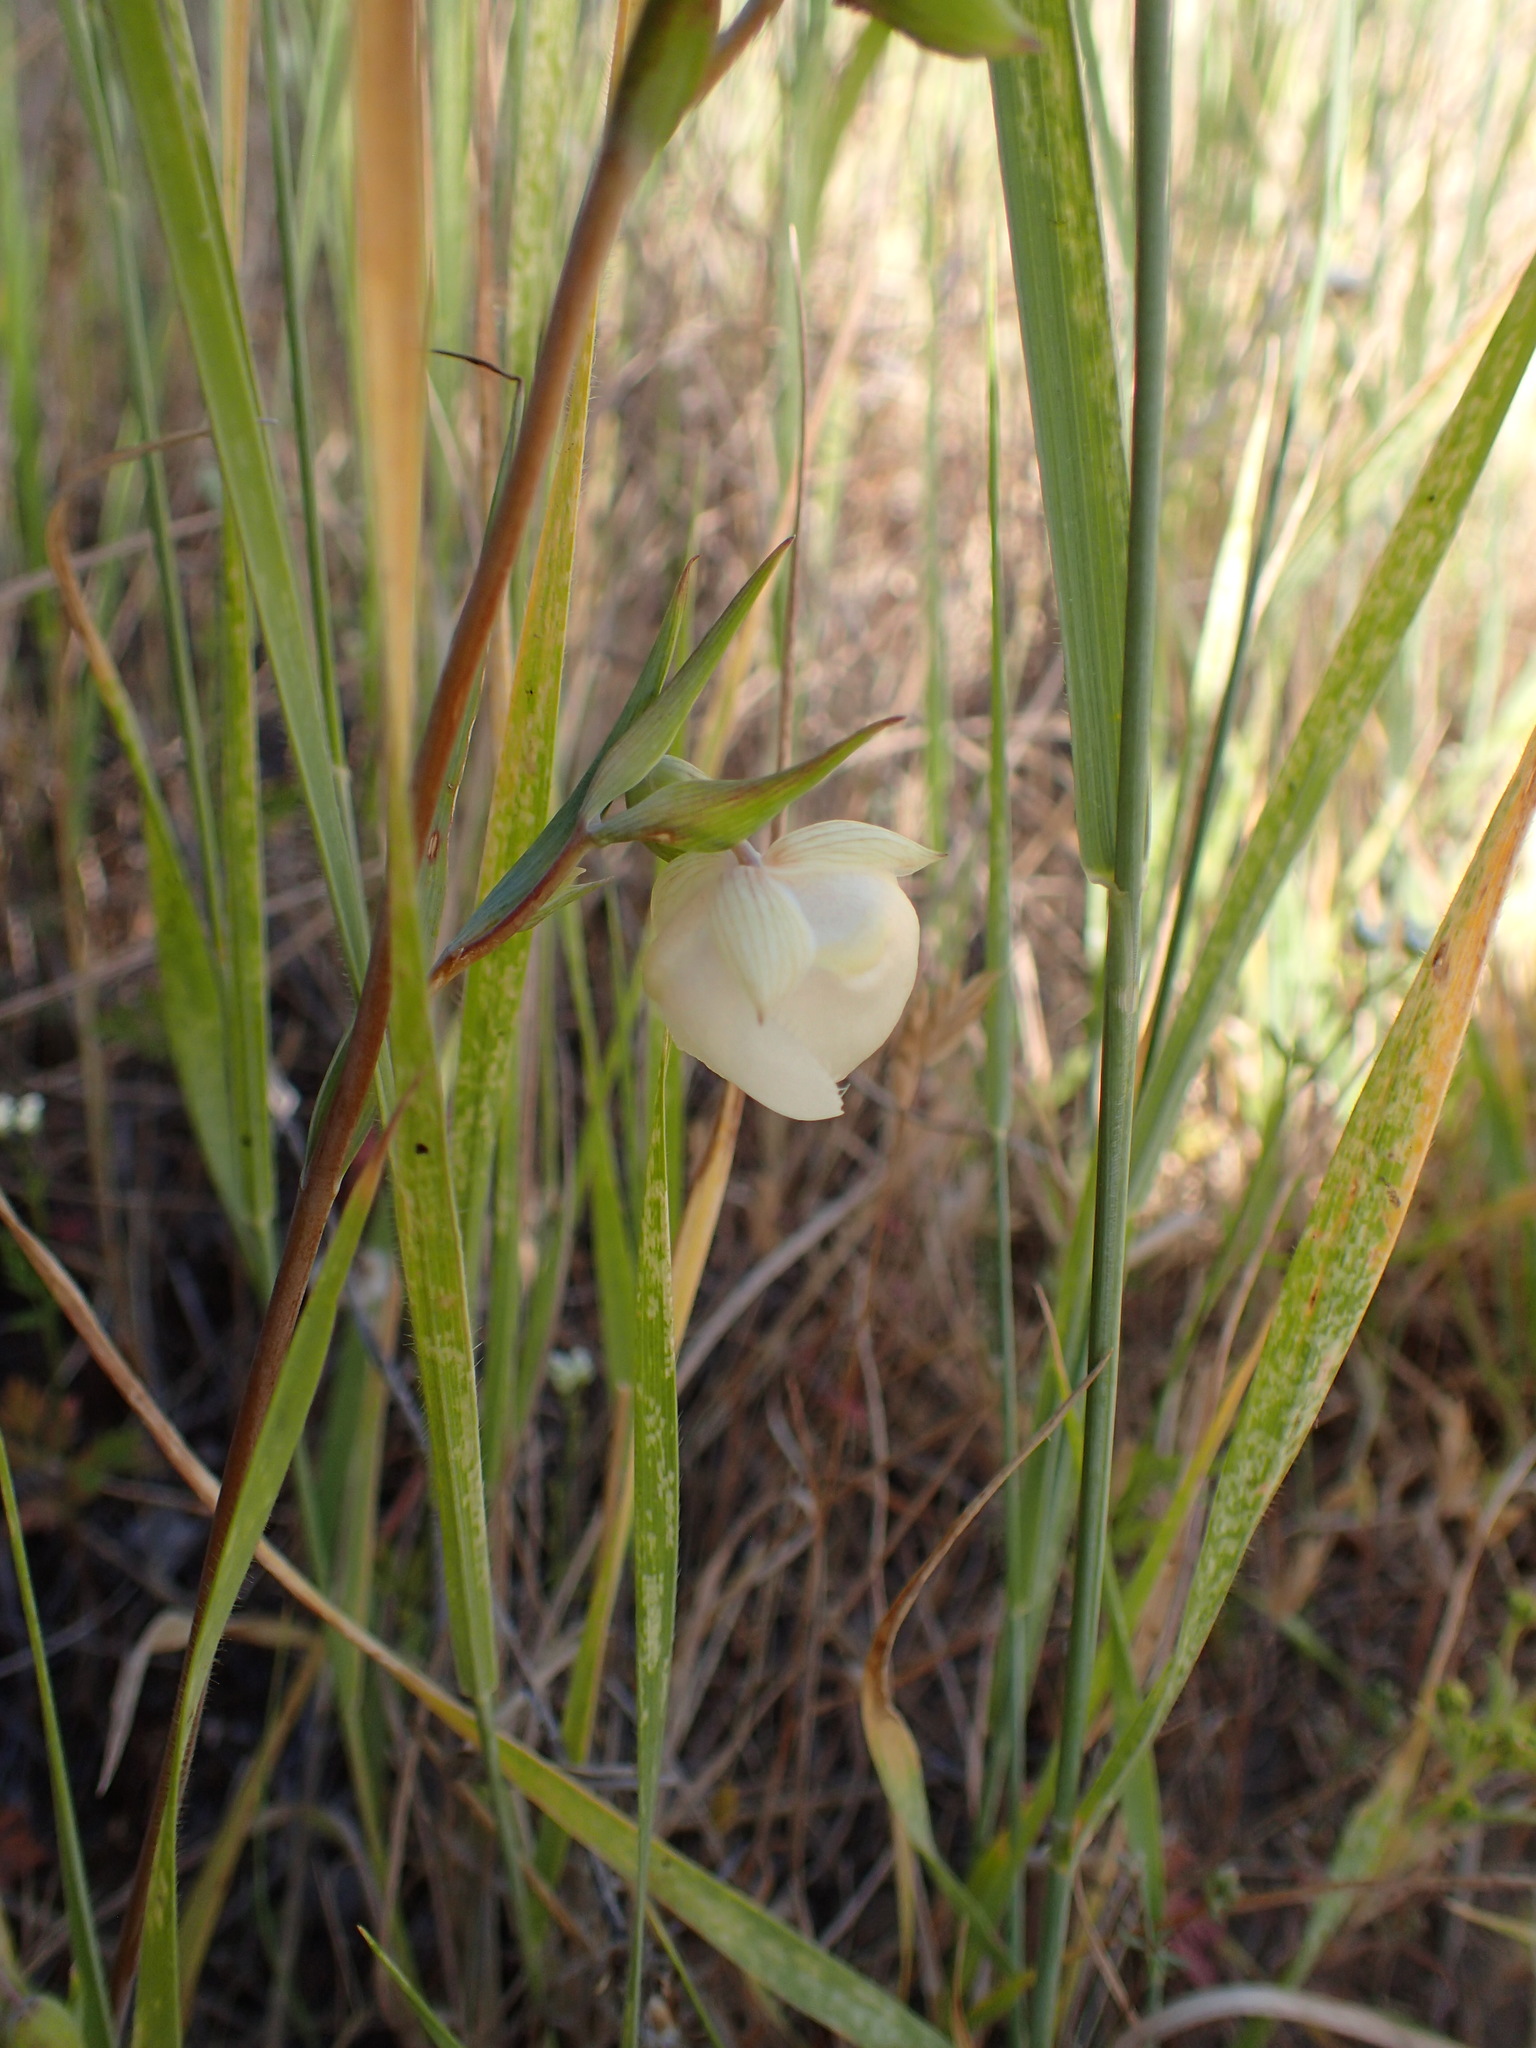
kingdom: Plantae
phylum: Tracheophyta
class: Liliopsida
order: Liliales
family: Liliaceae
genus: Calochortus
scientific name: Calochortus albus
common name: Fairy-lantern
